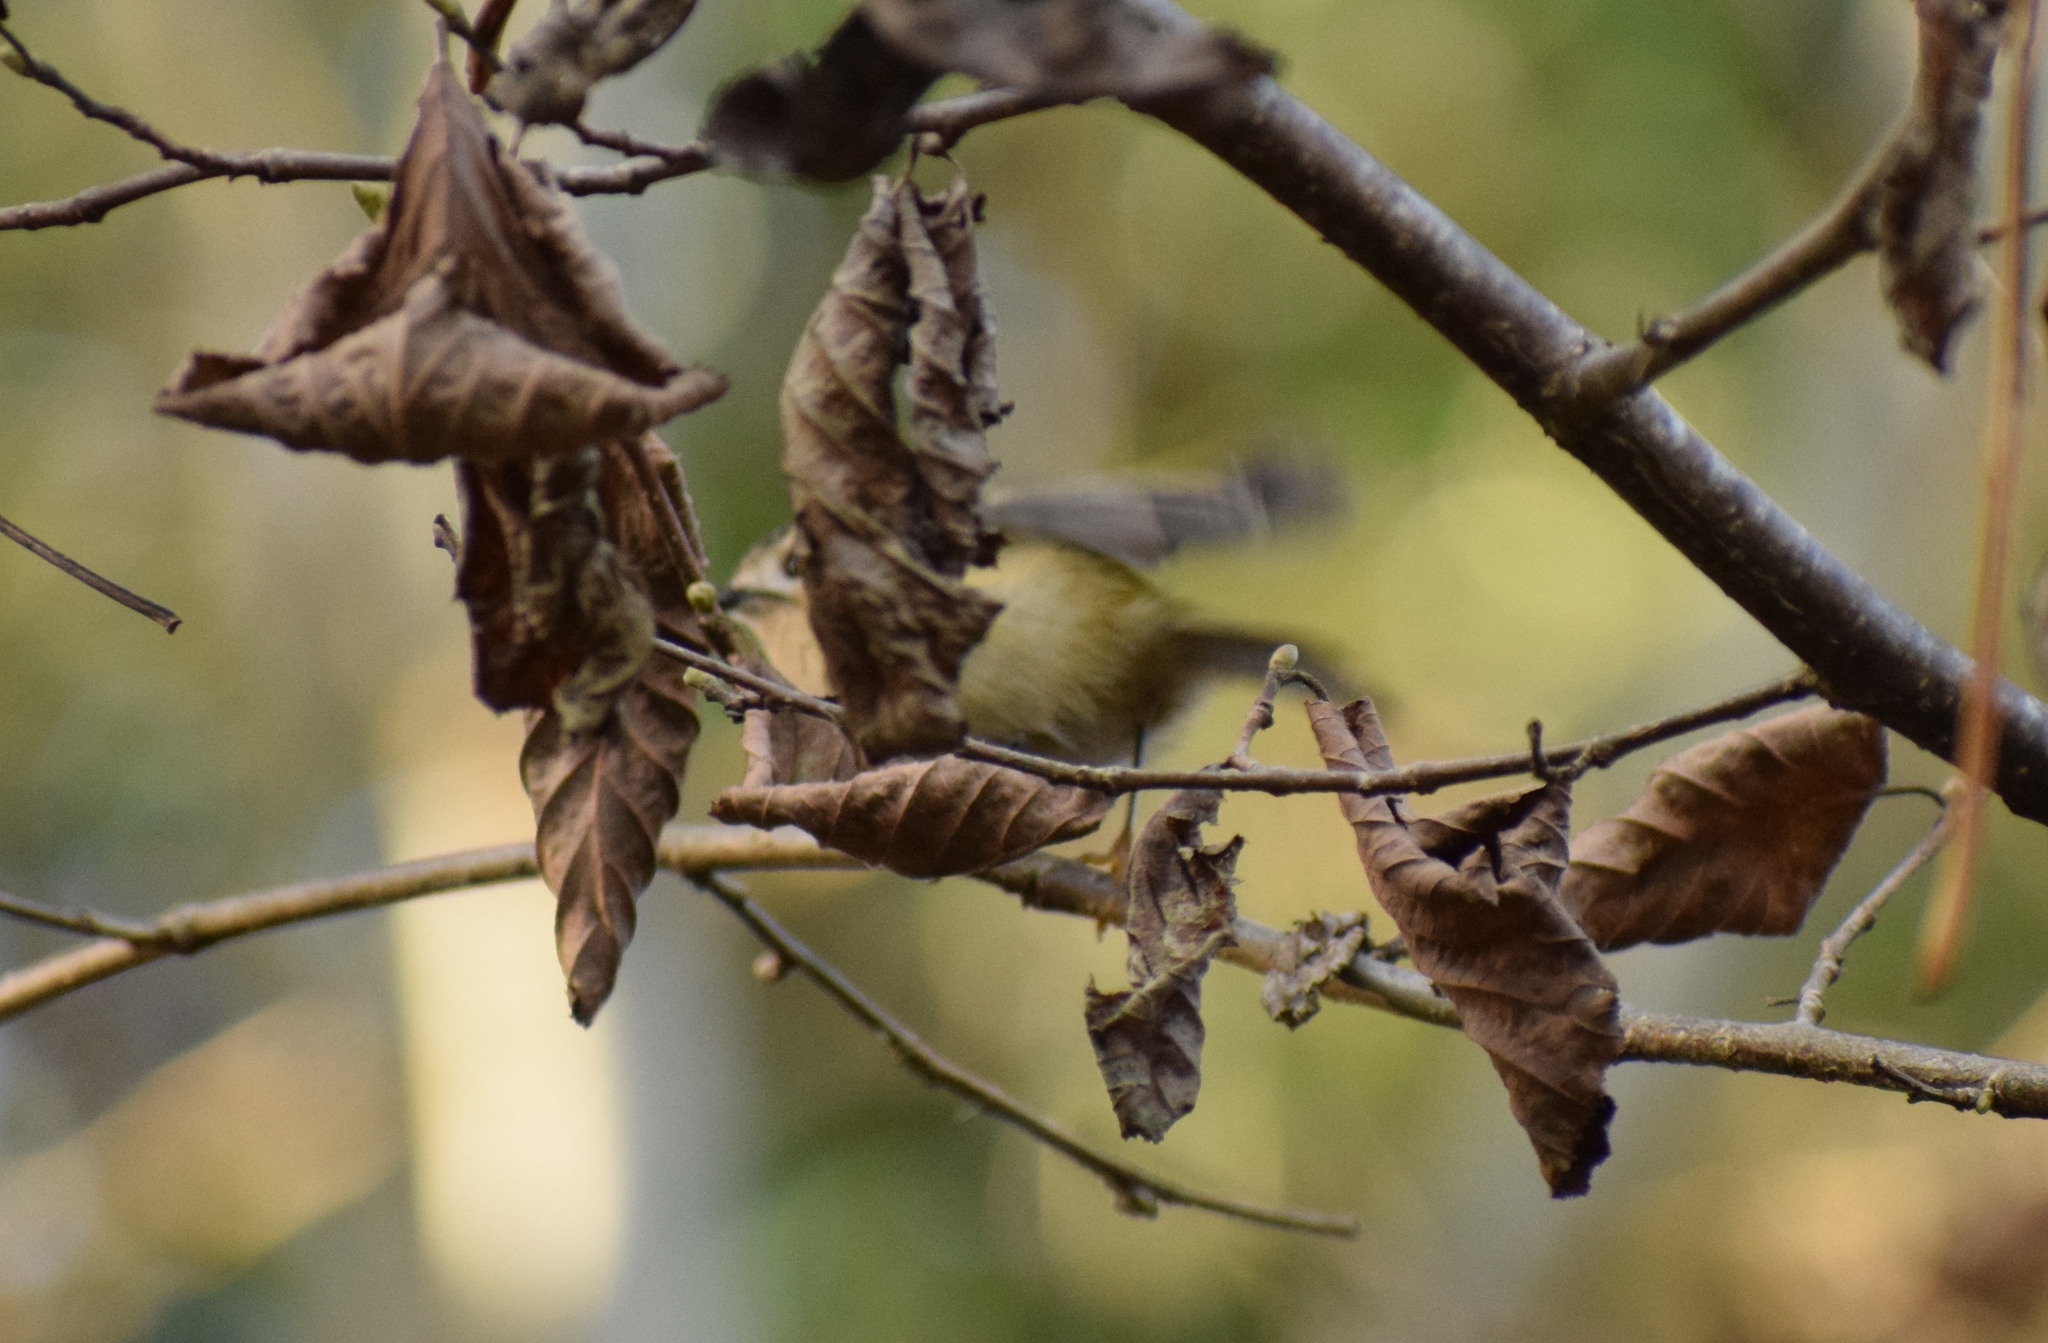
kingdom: Animalia
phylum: Chordata
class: Aves
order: Passeriformes
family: Regulidae
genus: Regulus
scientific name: Regulus regulus
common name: Goldcrest
